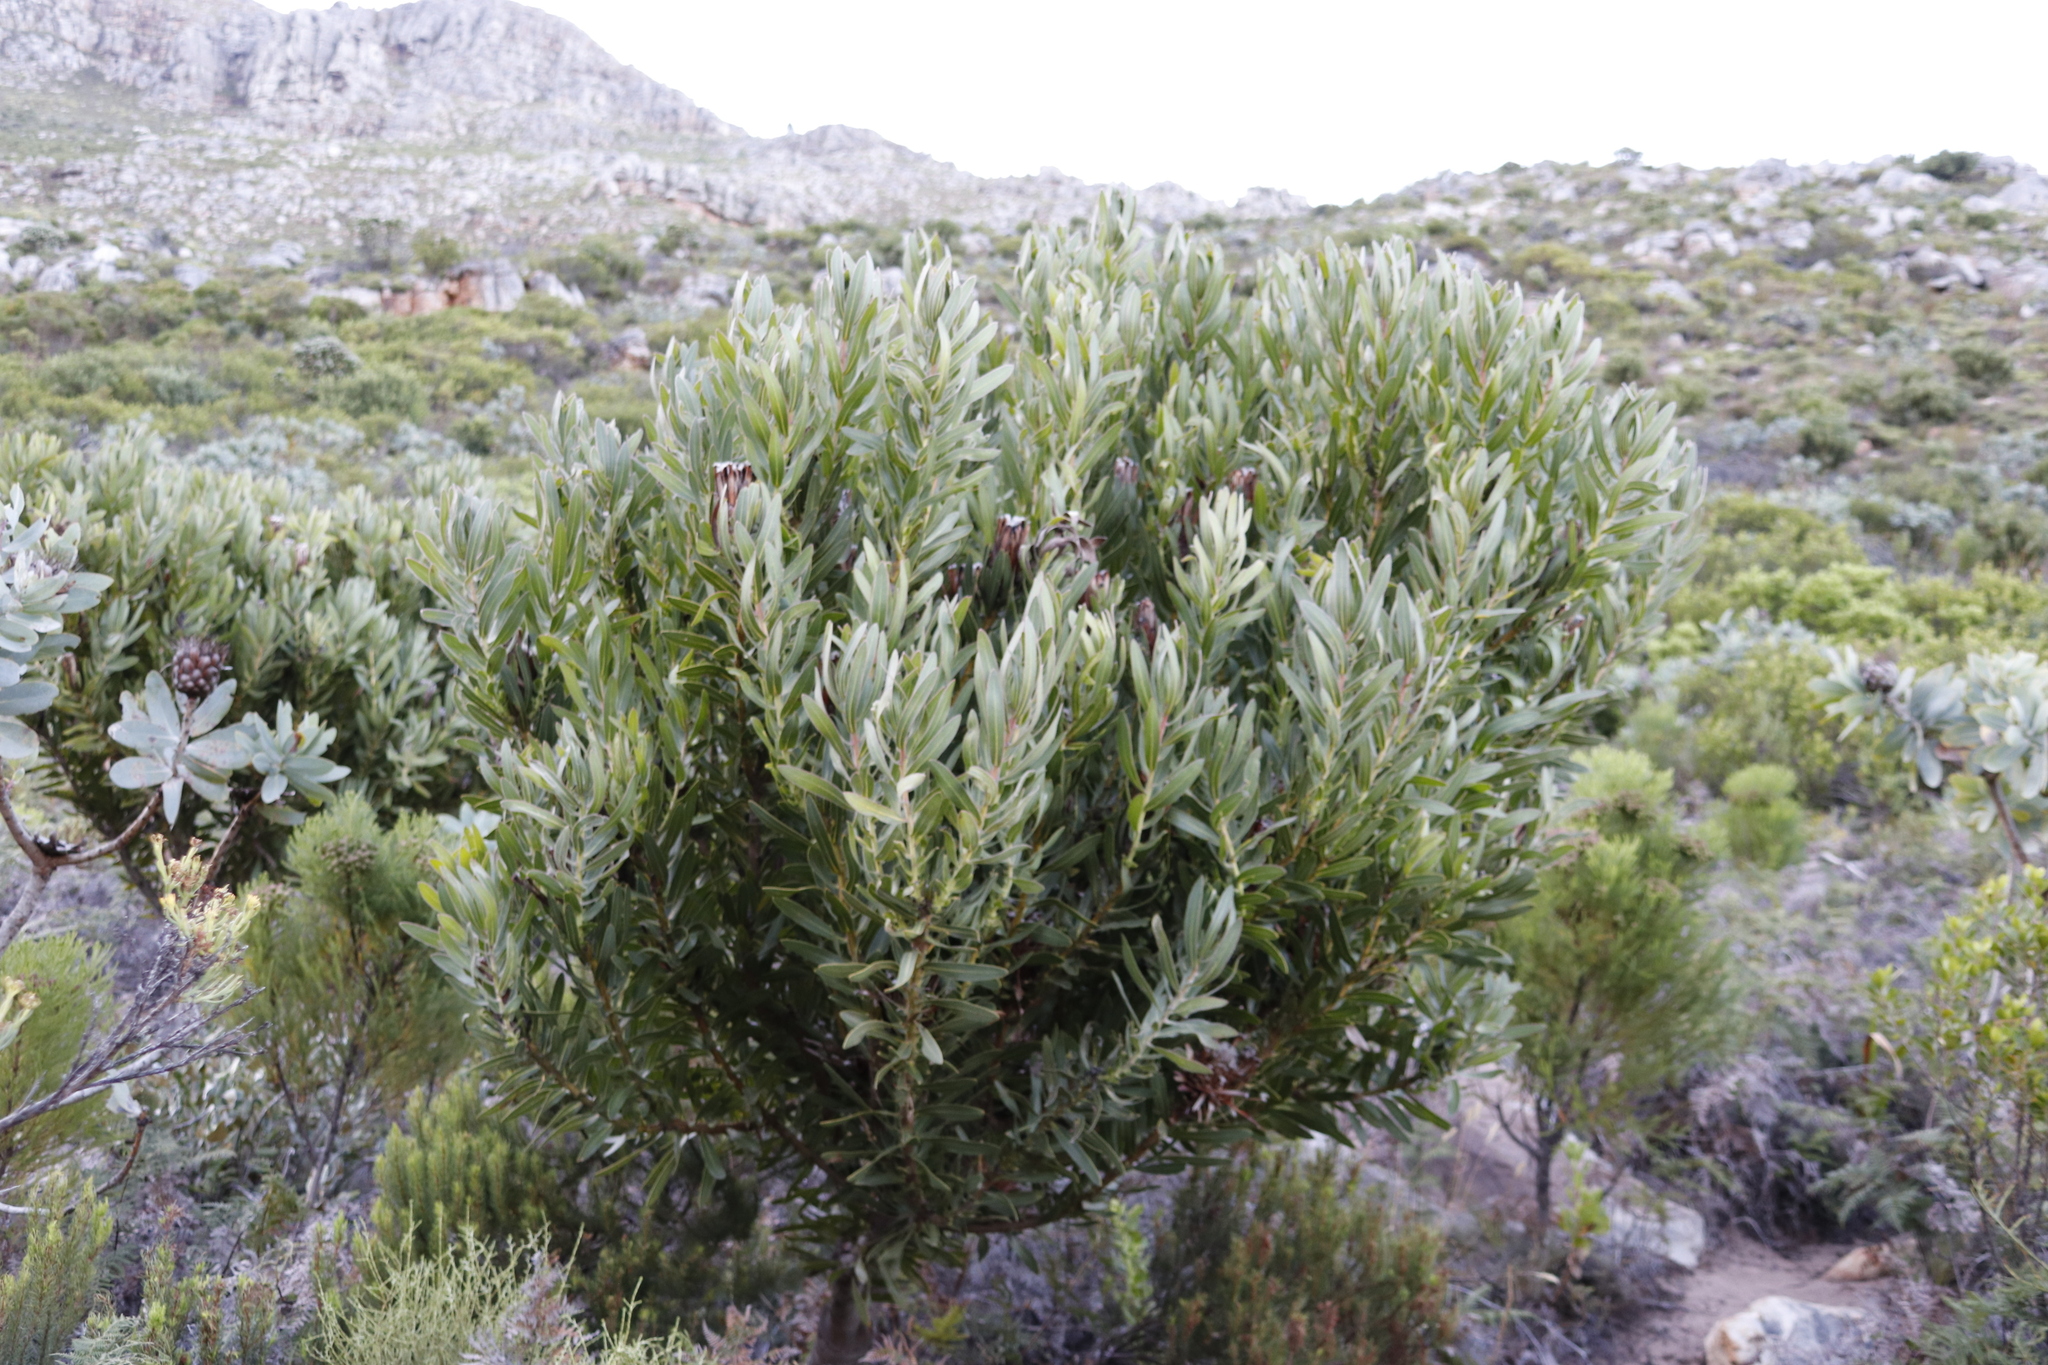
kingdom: Plantae
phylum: Tracheophyta
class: Magnoliopsida
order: Proteales
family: Proteaceae
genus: Protea
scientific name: Protea lepidocarpodendron
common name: Black-bearded protea
